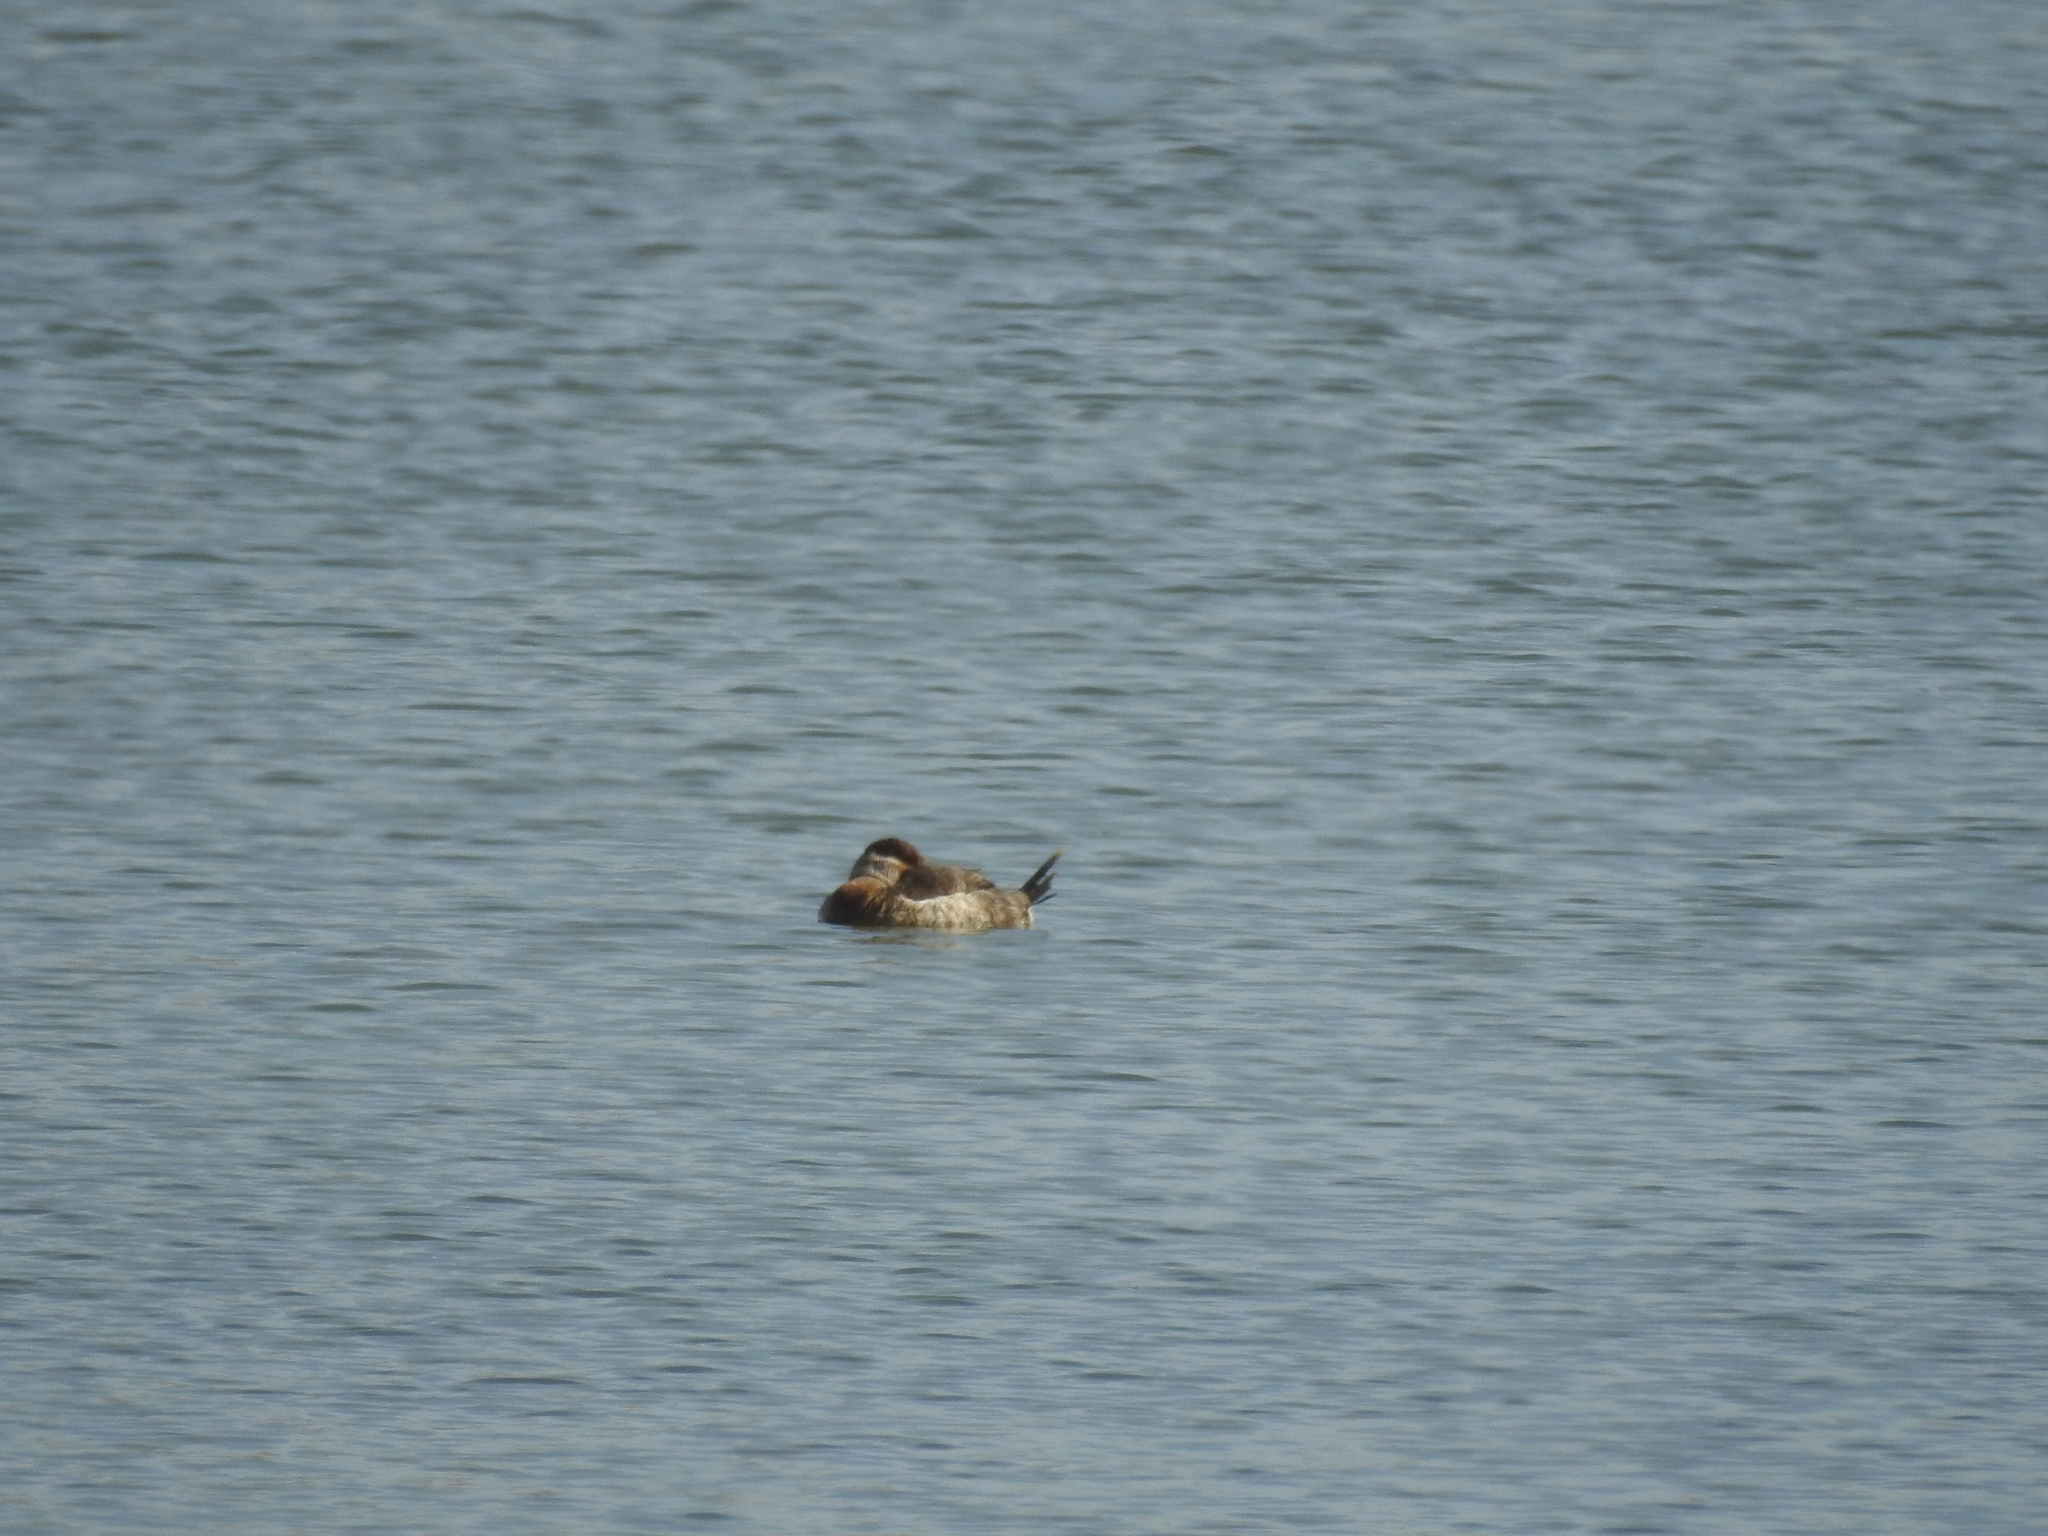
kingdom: Animalia
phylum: Chordata
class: Aves
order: Anseriformes
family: Anatidae
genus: Oxyura
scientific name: Oxyura jamaicensis
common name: Ruddy duck
